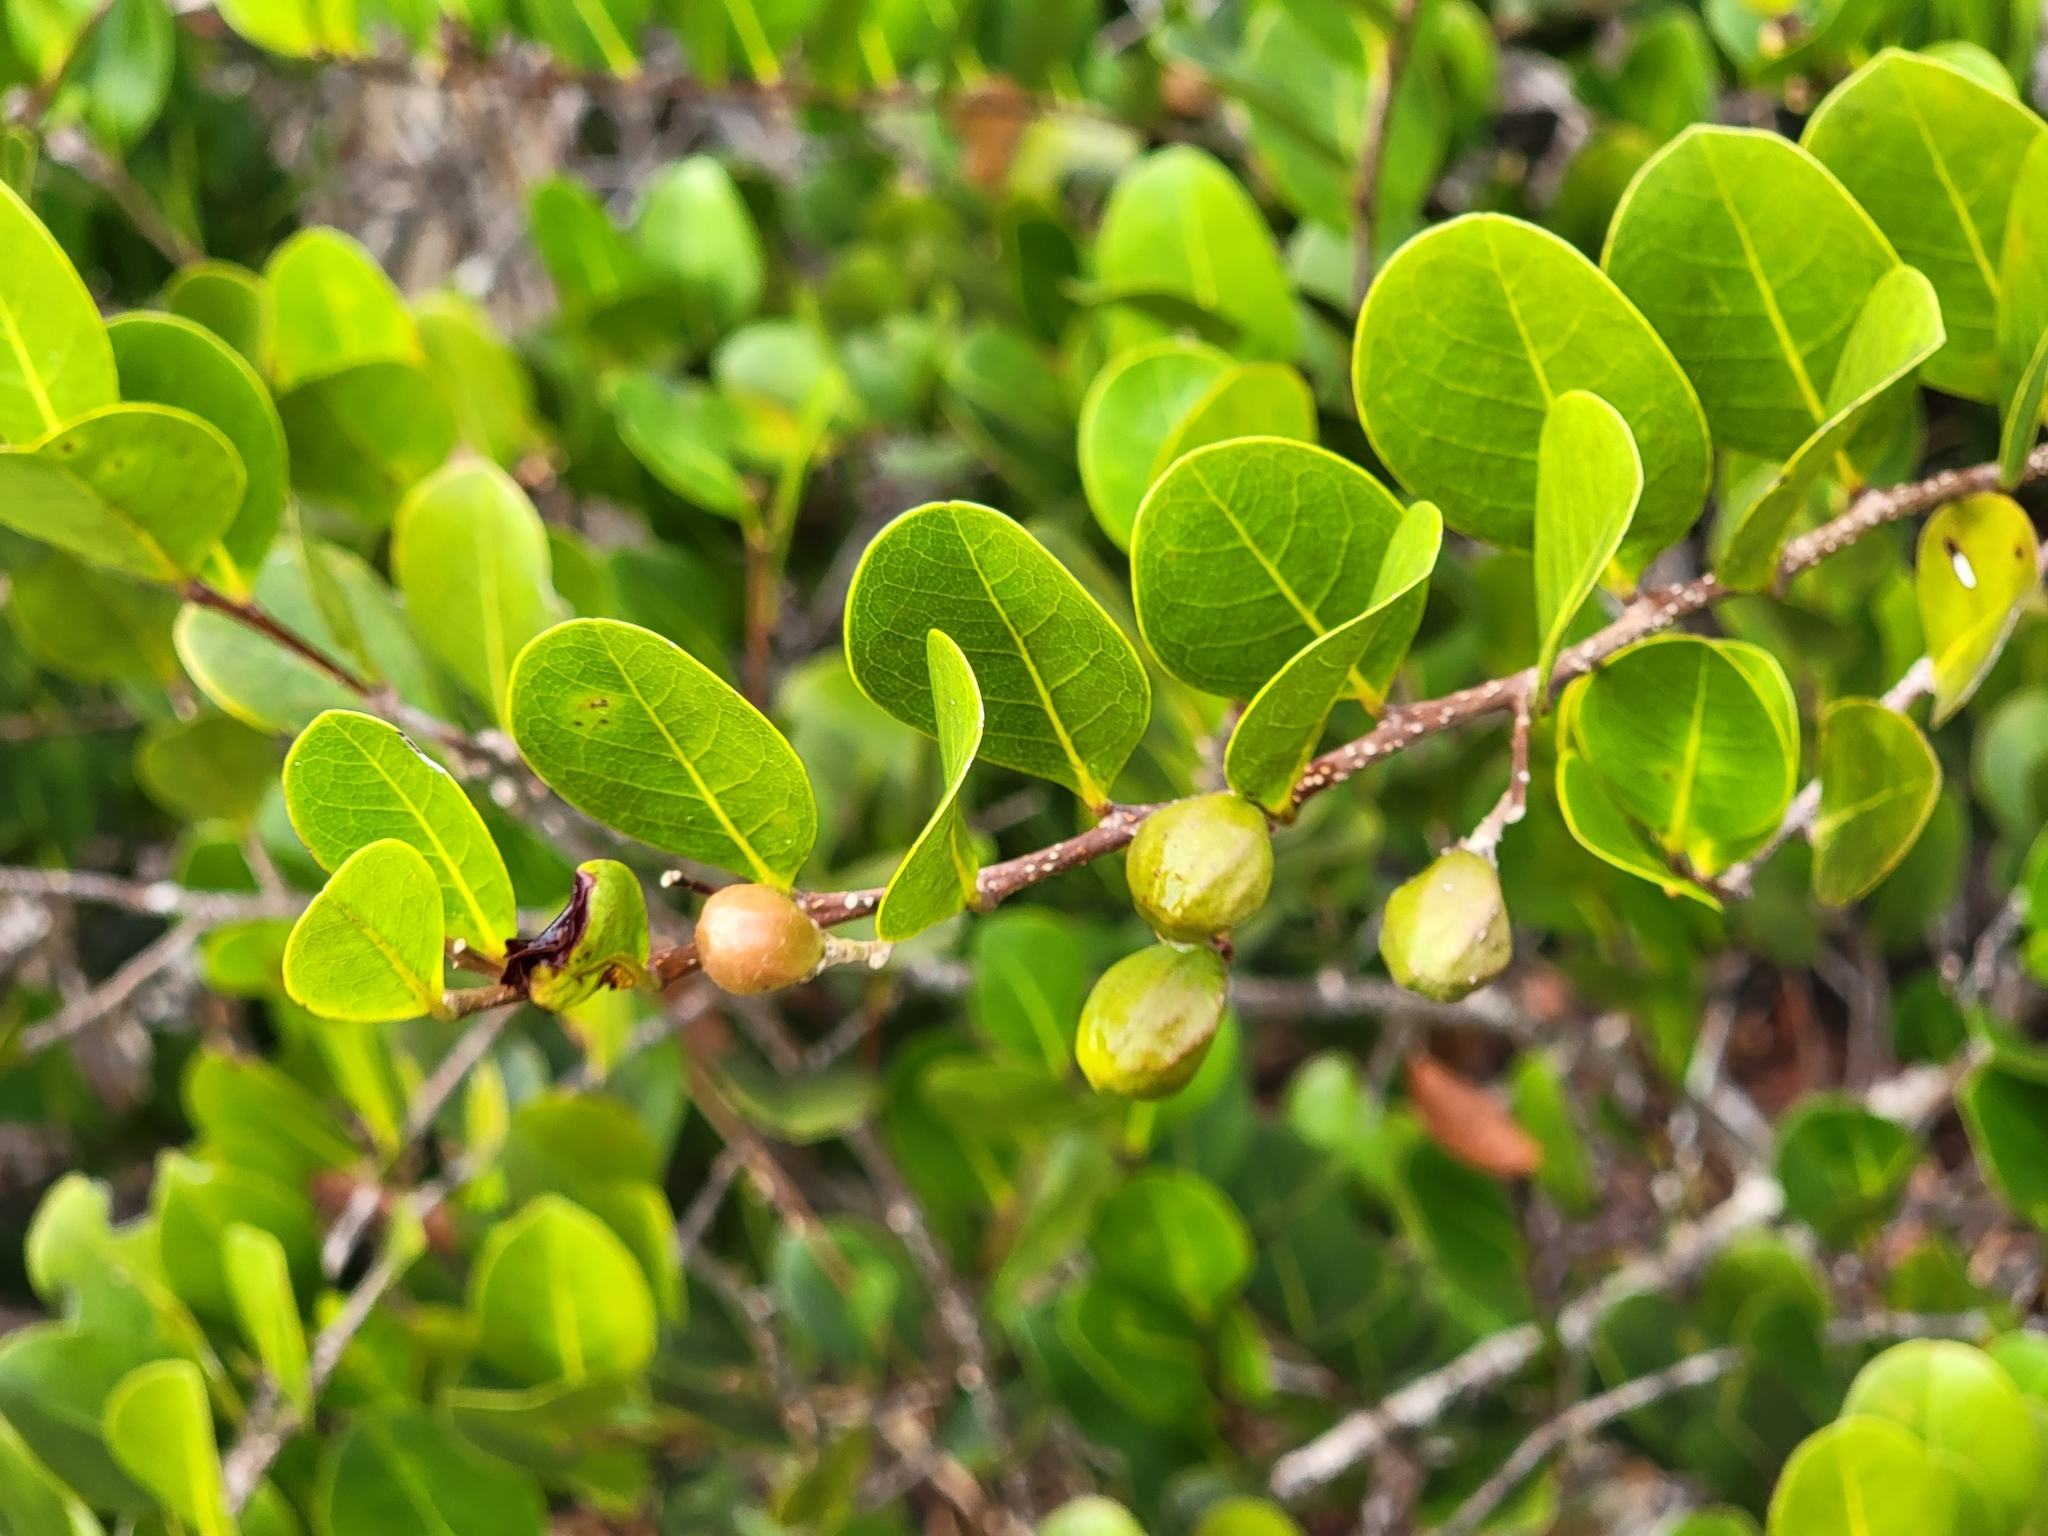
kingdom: Plantae
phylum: Tracheophyta
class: Magnoliopsida
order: Malpighiales
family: Chrysobalanaceae
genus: Chrysobalanus
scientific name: Chrysobalanus icaco
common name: Coco plum
